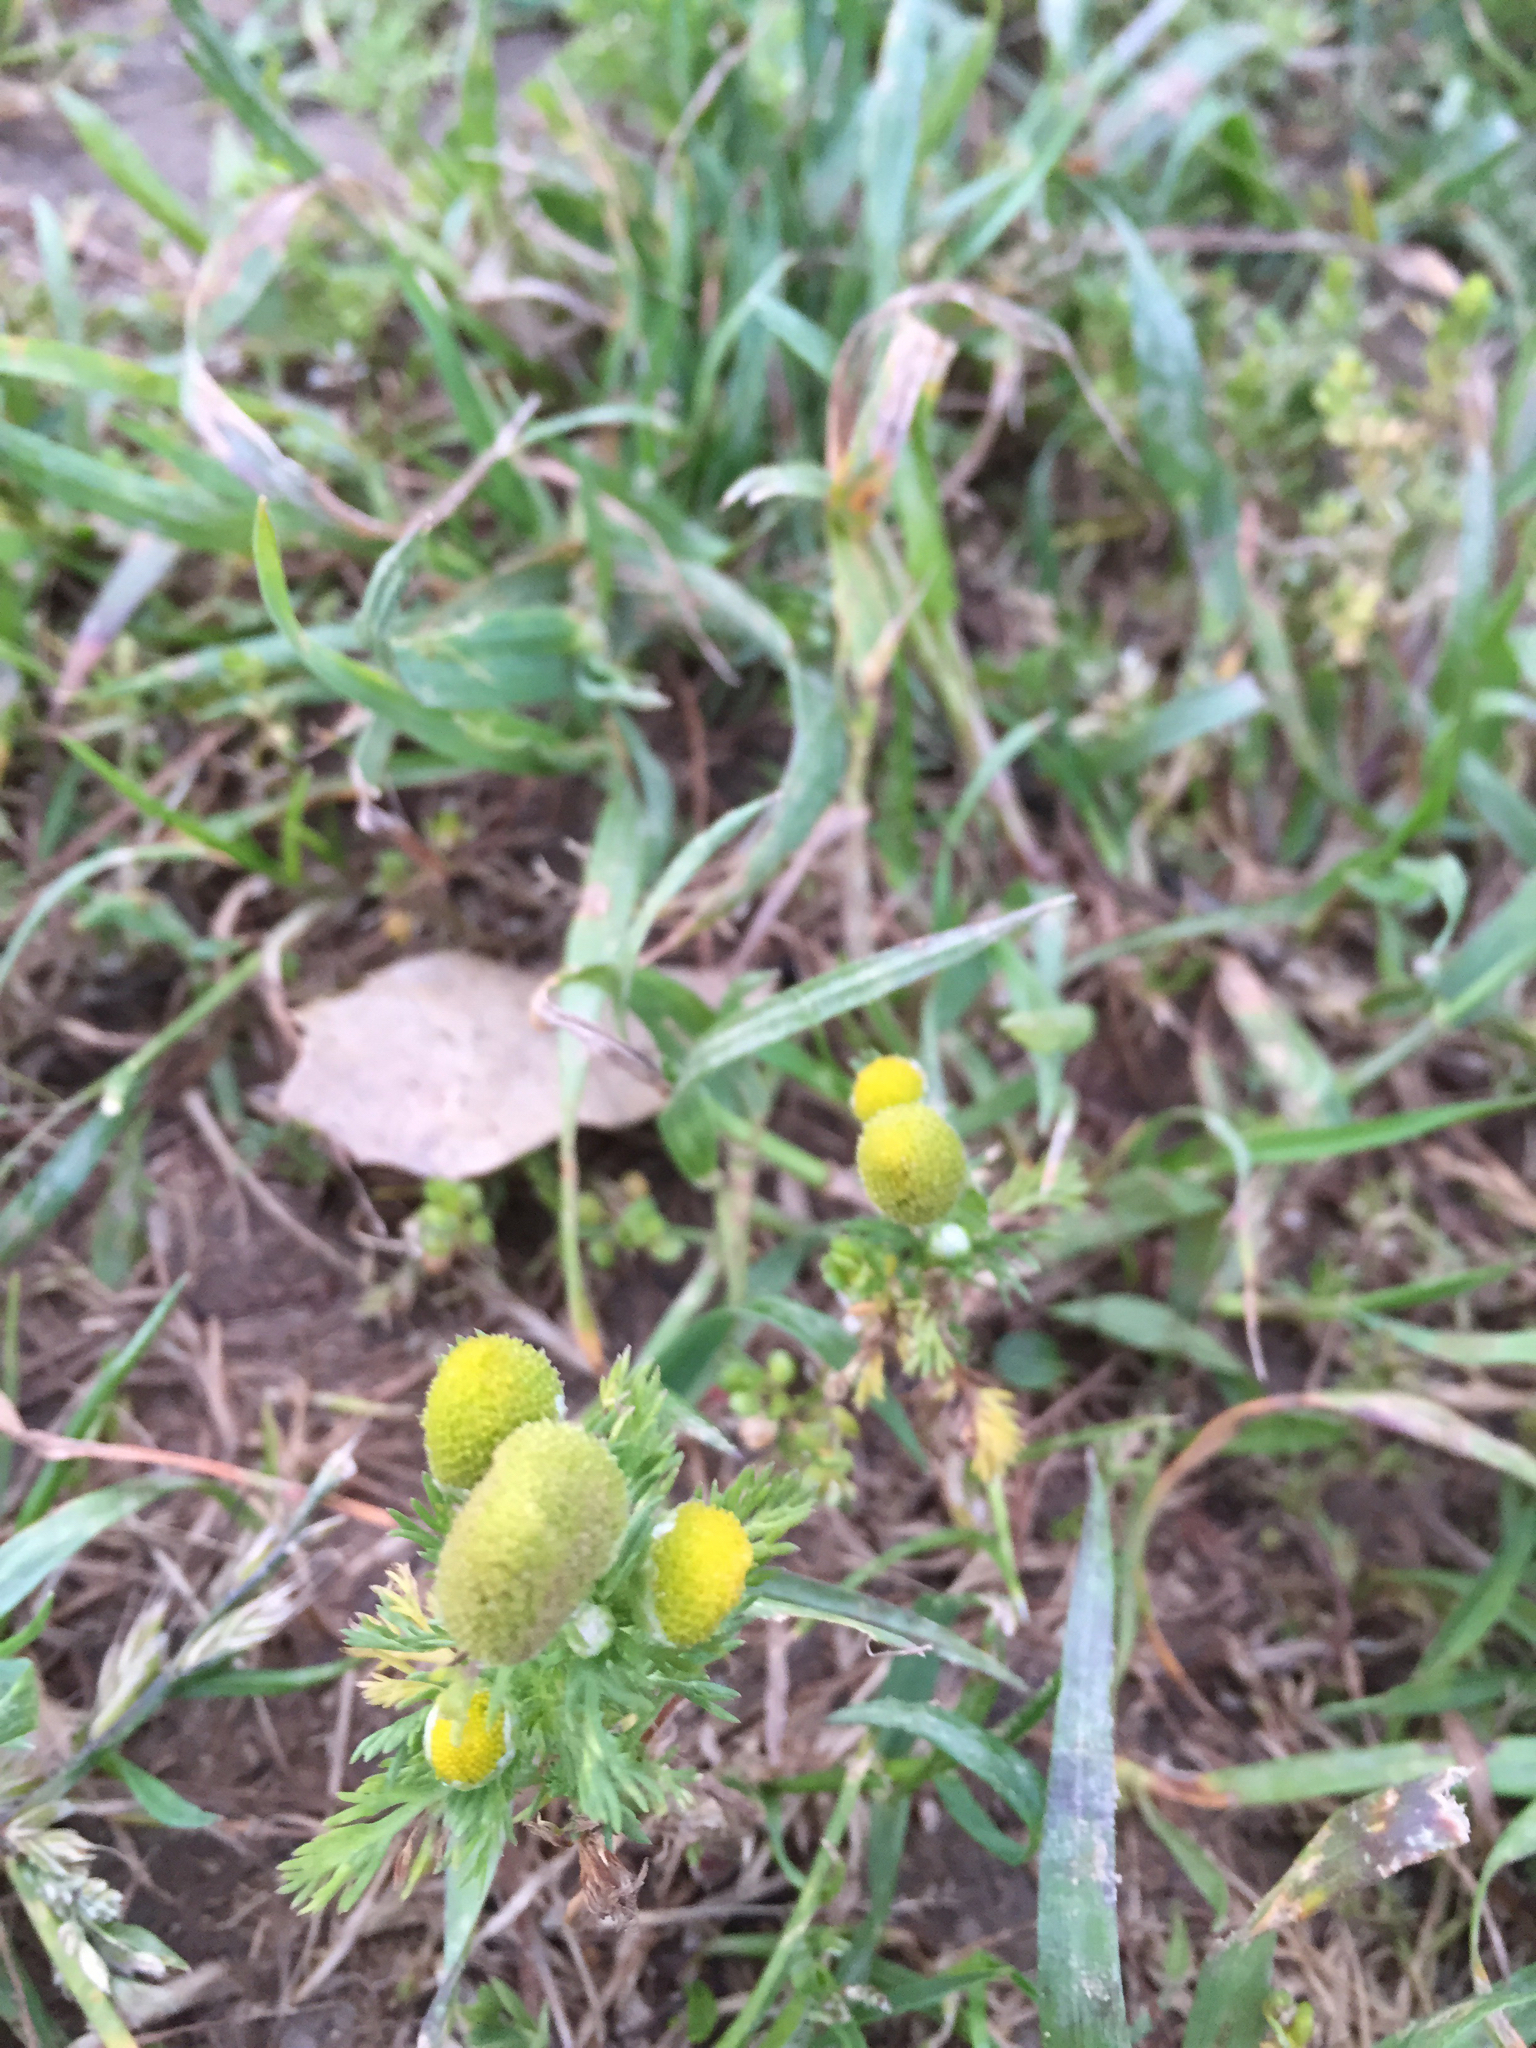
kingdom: Plantae
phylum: Tracheophyta
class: Magnoliopsida
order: Asterales
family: Asteraceae
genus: Matricaria
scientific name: Matricaria discoidea
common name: Disc mayweed
